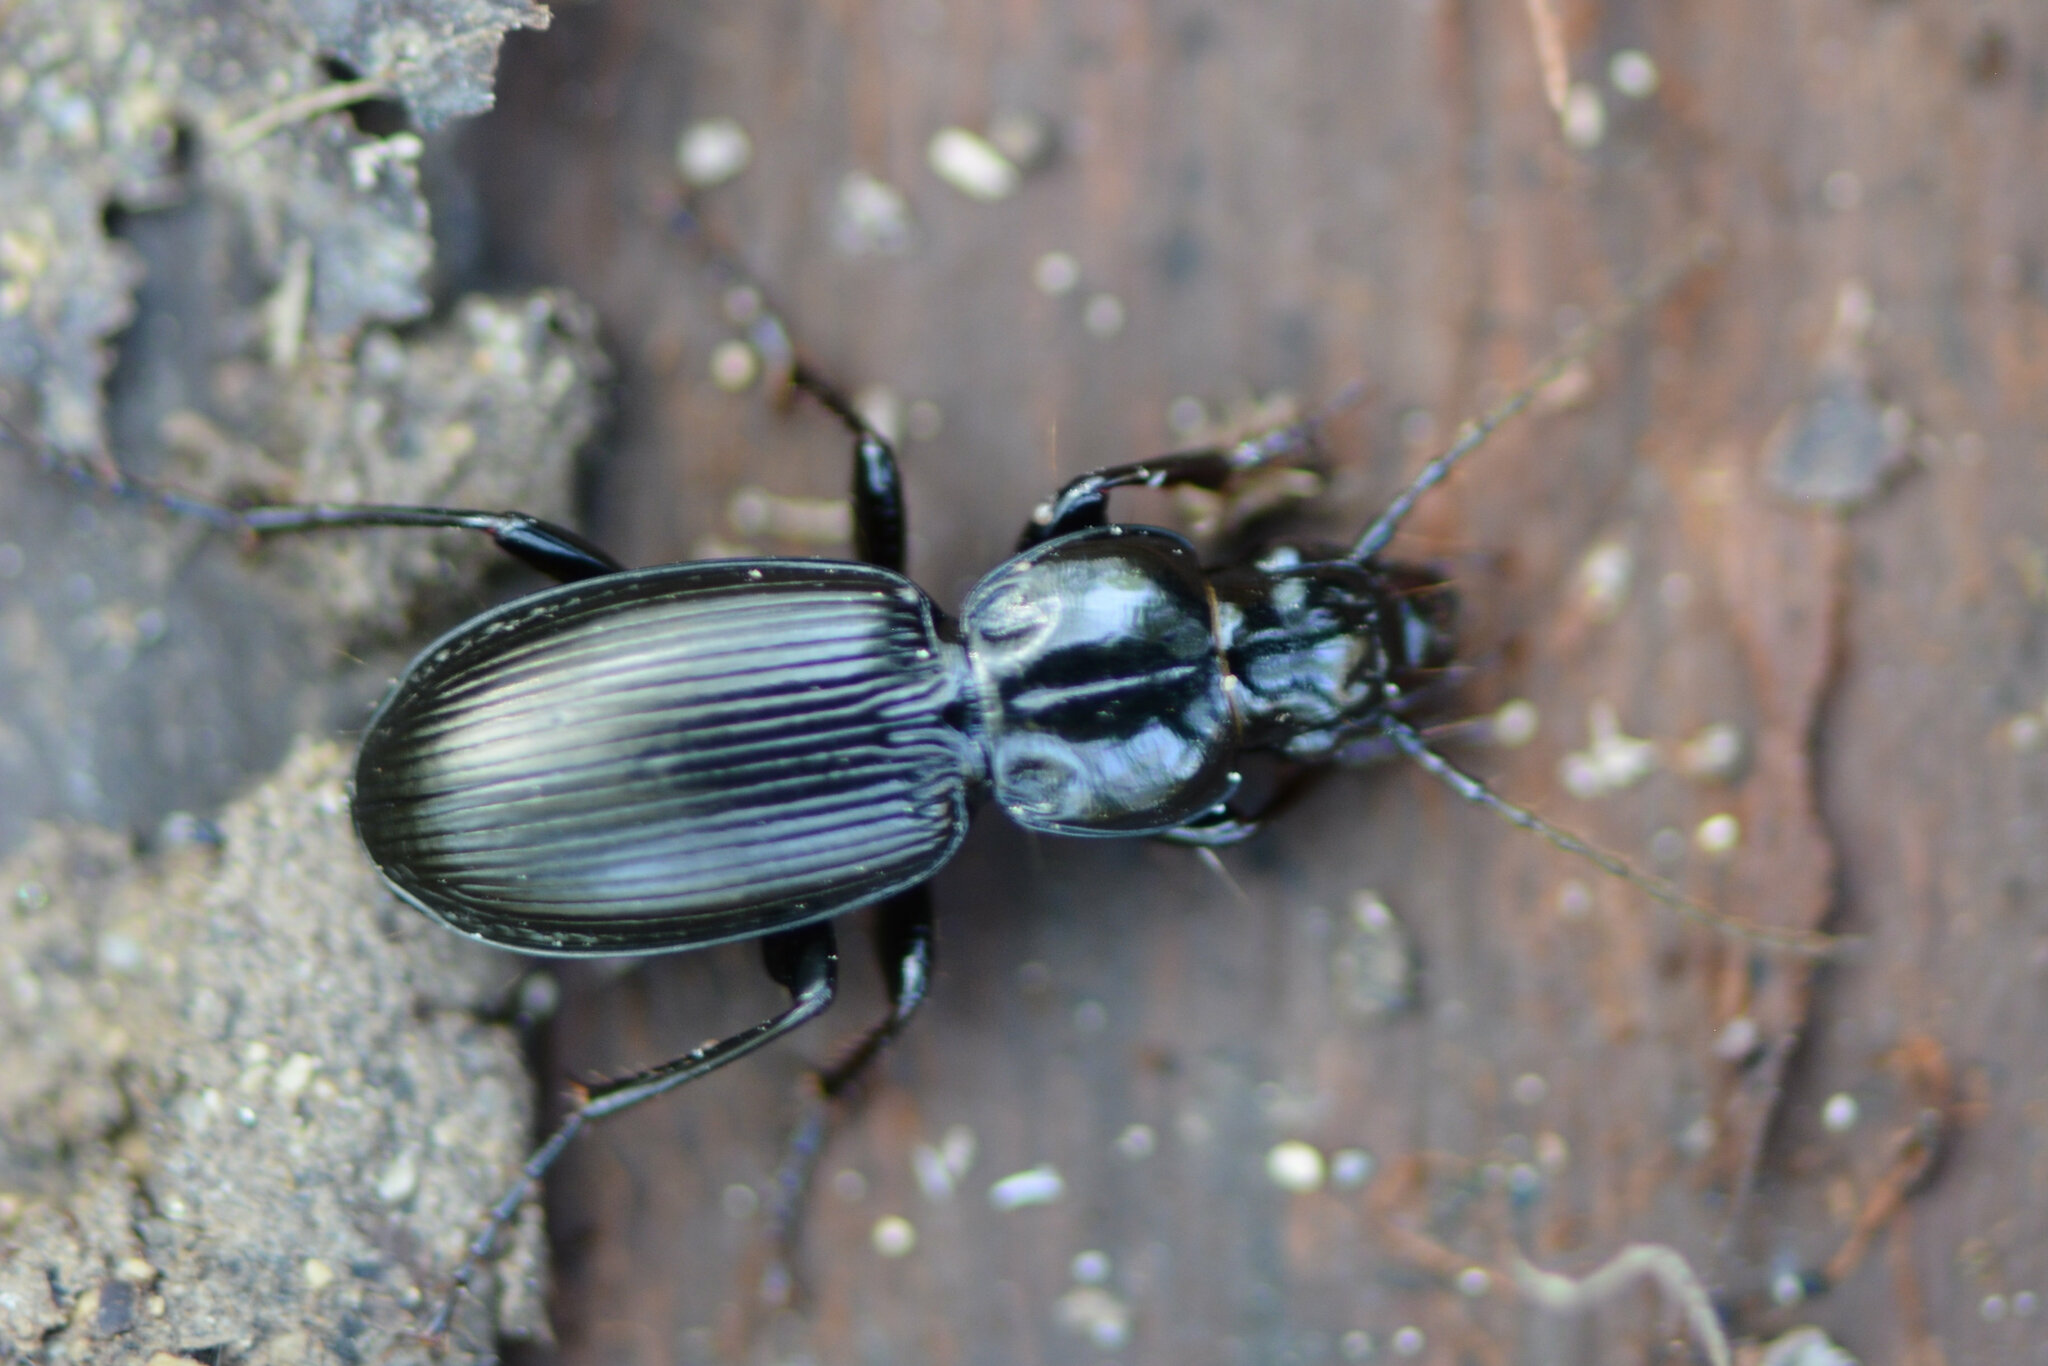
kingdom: Animalia
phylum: Arthropoda
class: Insecta
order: Coleoptera
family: Carabidae
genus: Pterostichus
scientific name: Pterostichus madidus
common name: Black clock
